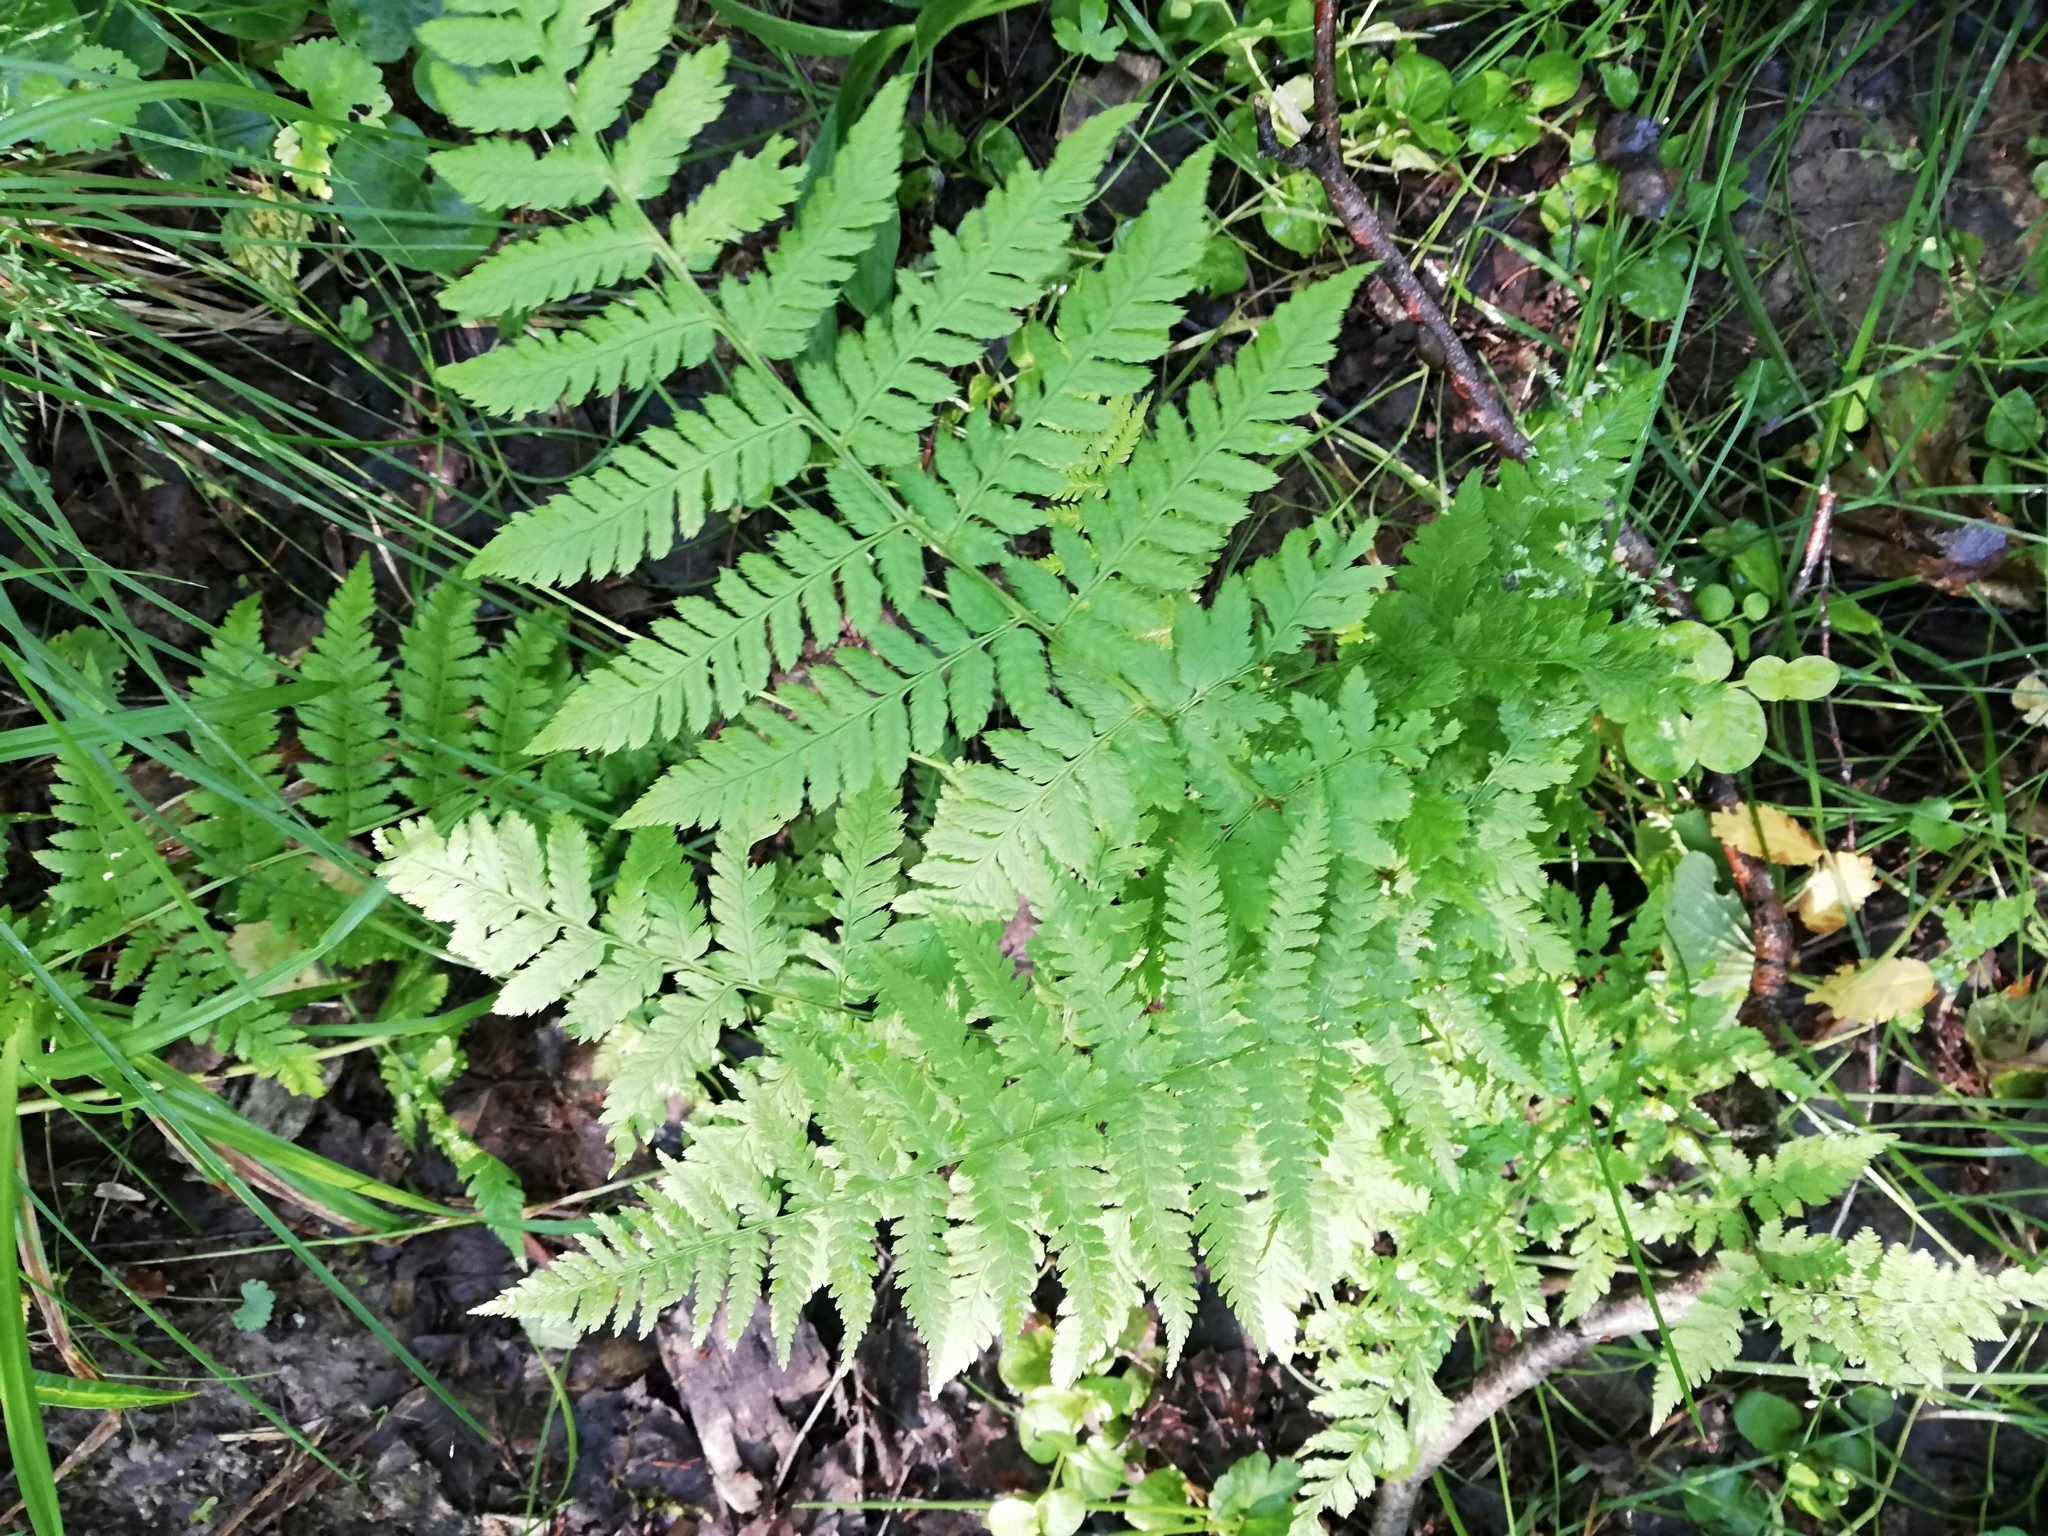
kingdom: Plantae
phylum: Tracheophyta
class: Polypodiopsida
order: Polypodiales
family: Dryopteridaceae
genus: Dryopteris
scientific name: Dryopteris carthusiana
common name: Narrow buckler-fern
